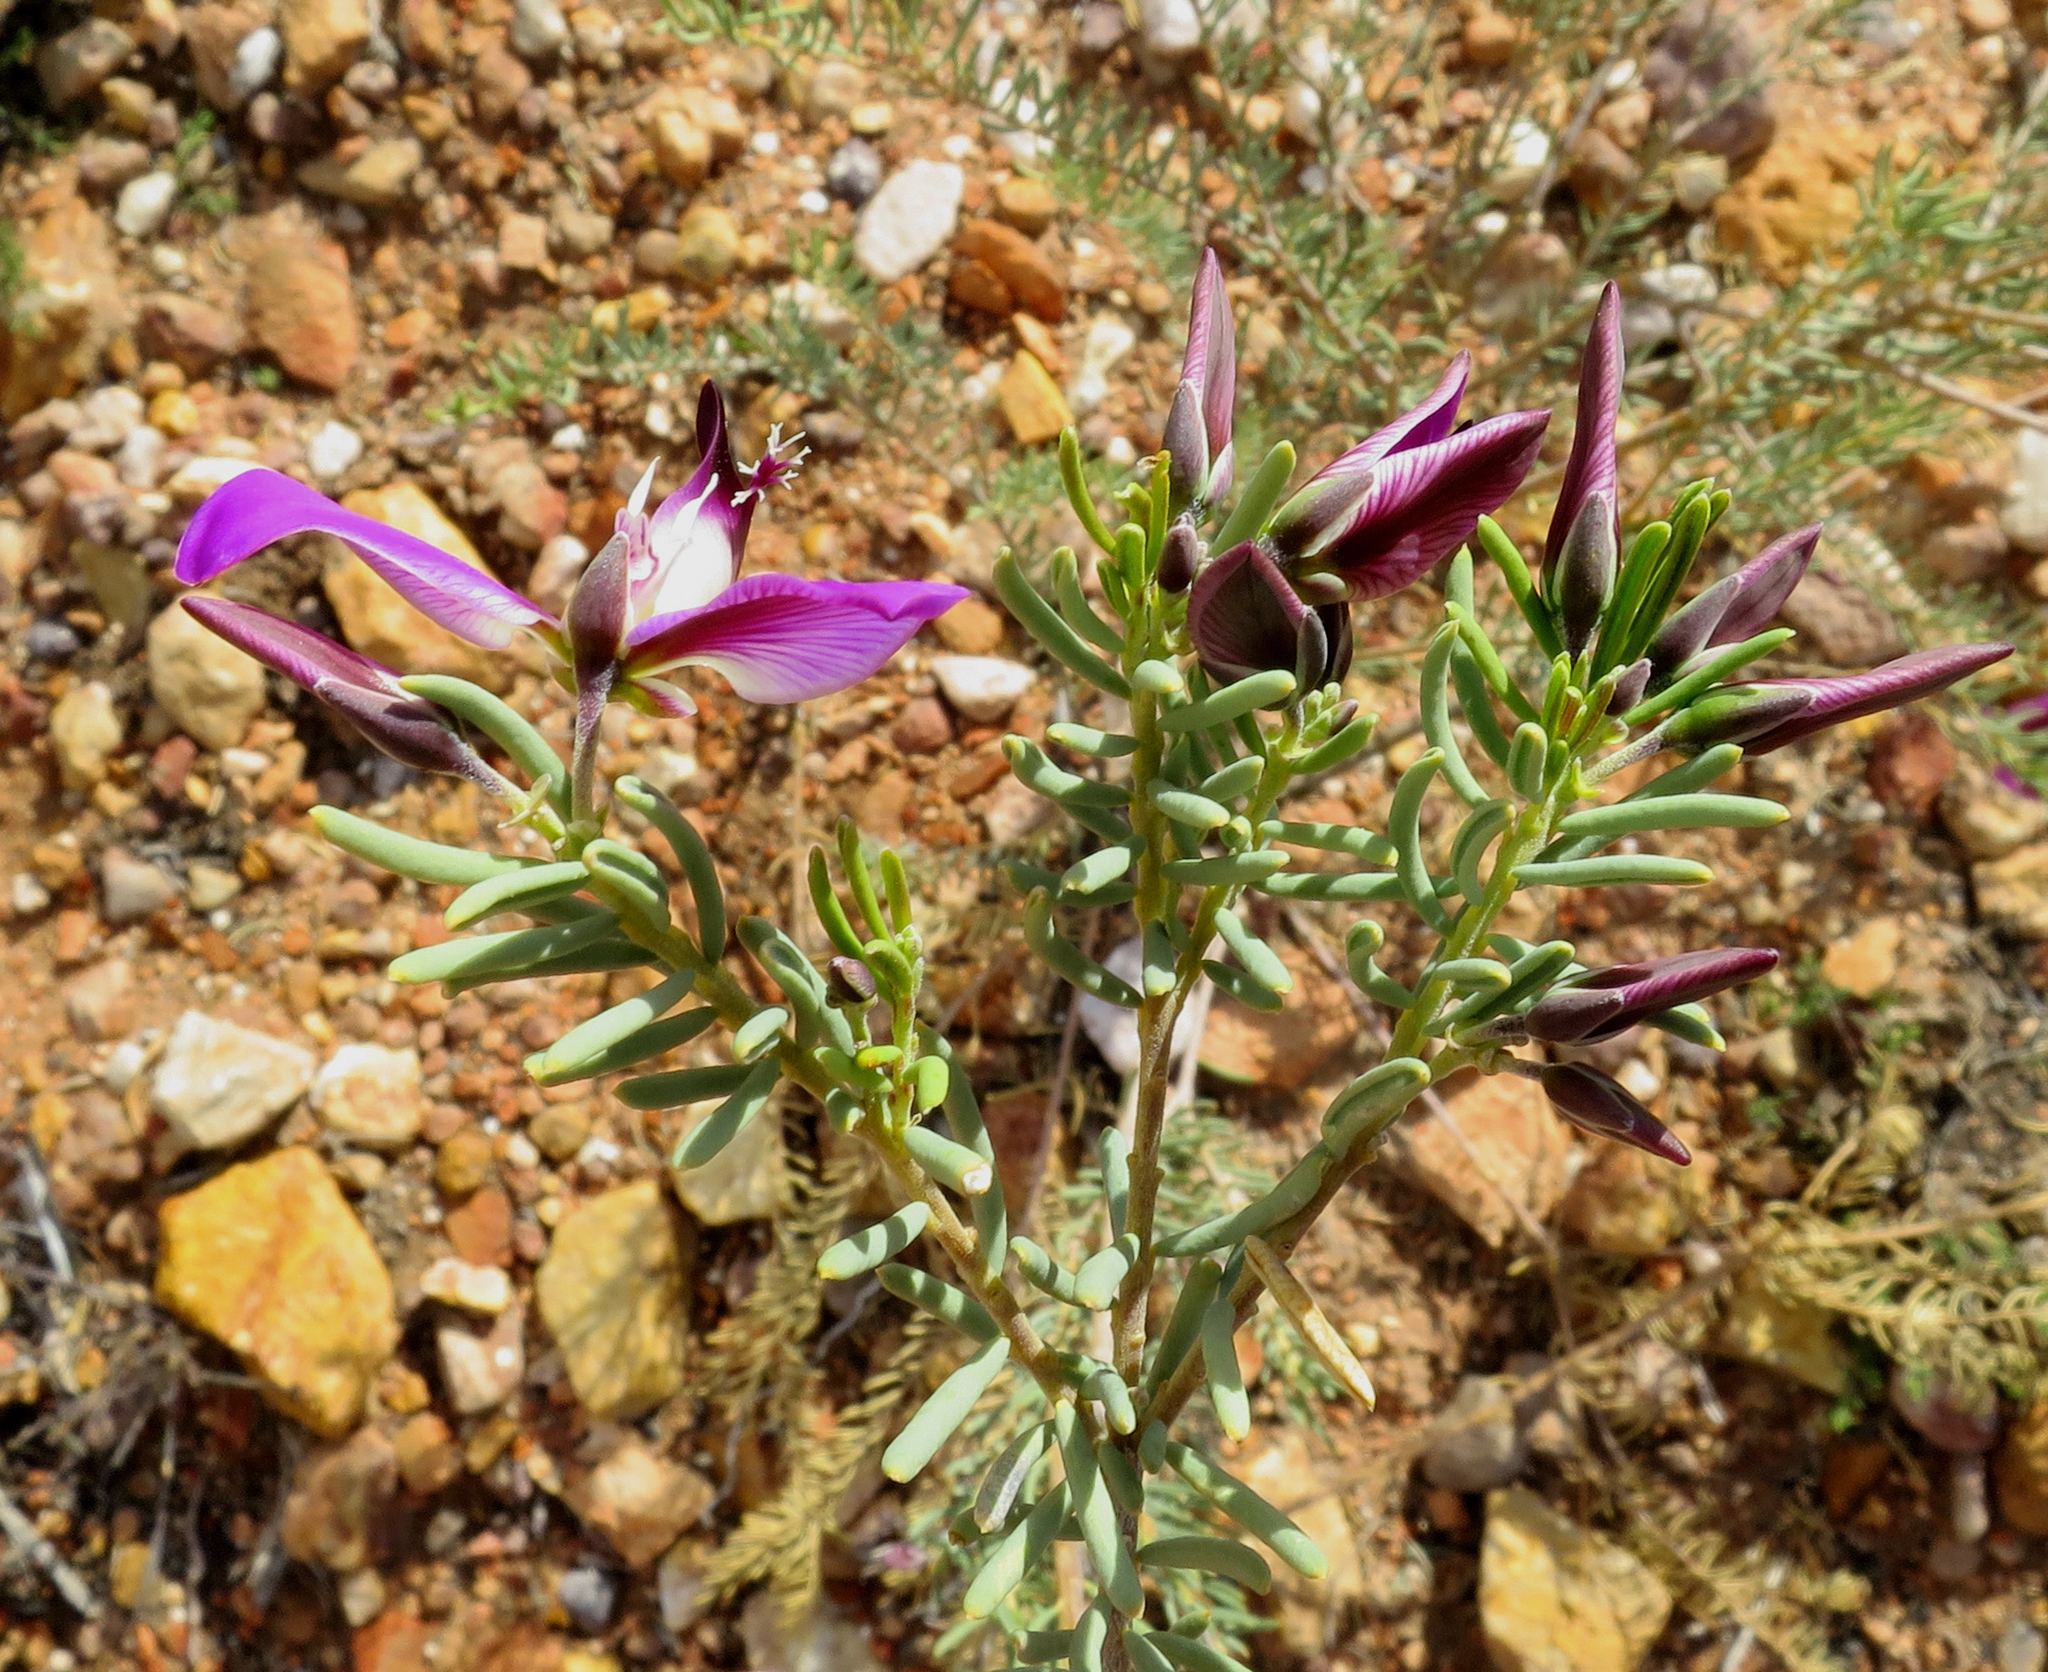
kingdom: Plantae
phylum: Tracheophyta
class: Magnoliopsida
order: Fabales
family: Polygalaceae
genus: Polygala
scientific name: Polygala myrtifolia
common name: Myrtle-leaf milkwort
